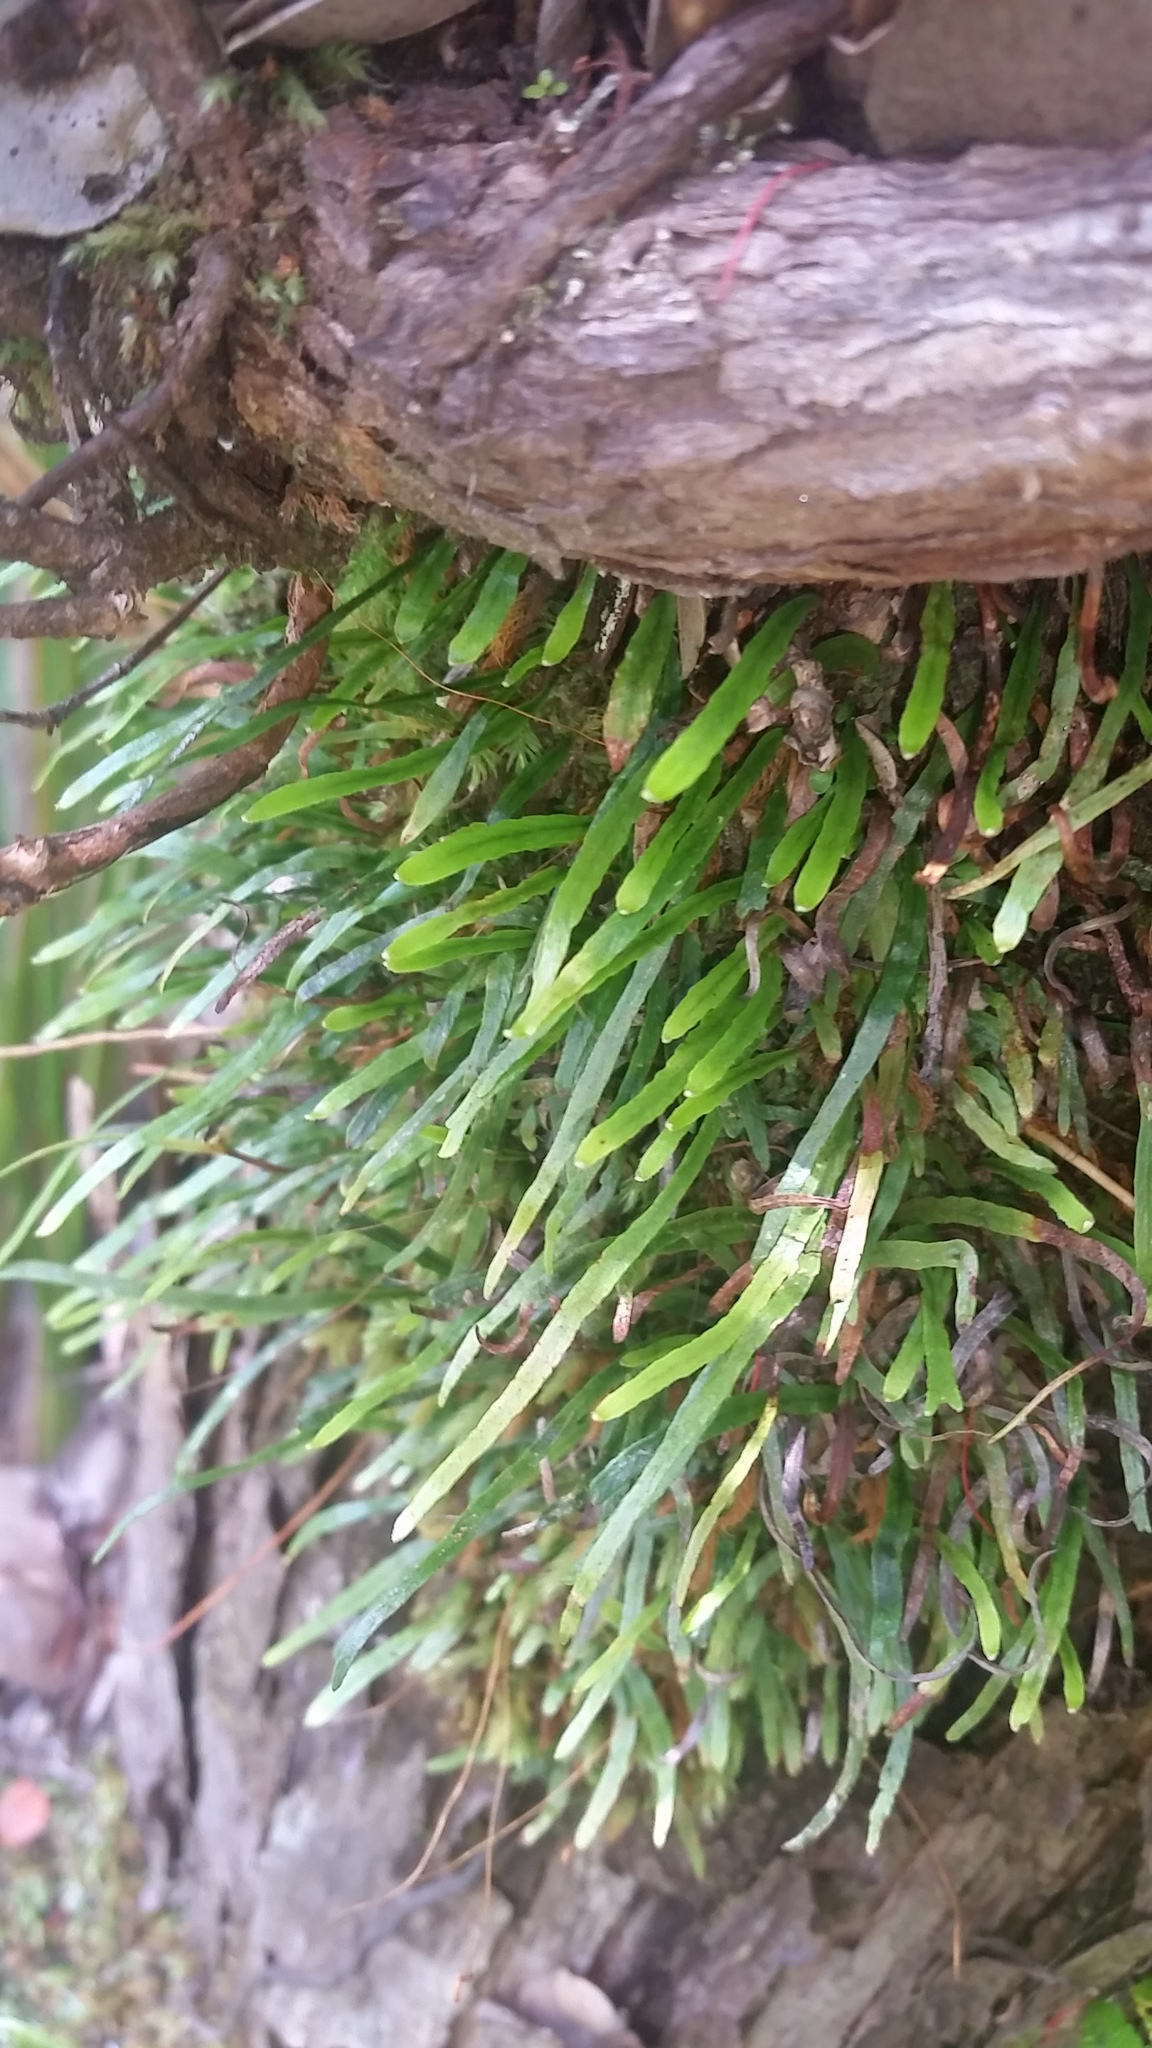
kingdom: Plantae
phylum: Tracheophyta
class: Polypodiopsida
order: Polypodiales
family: Polypodiaceae
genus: Adenophorus
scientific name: Adenophorus tenellus
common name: Kolokolo
